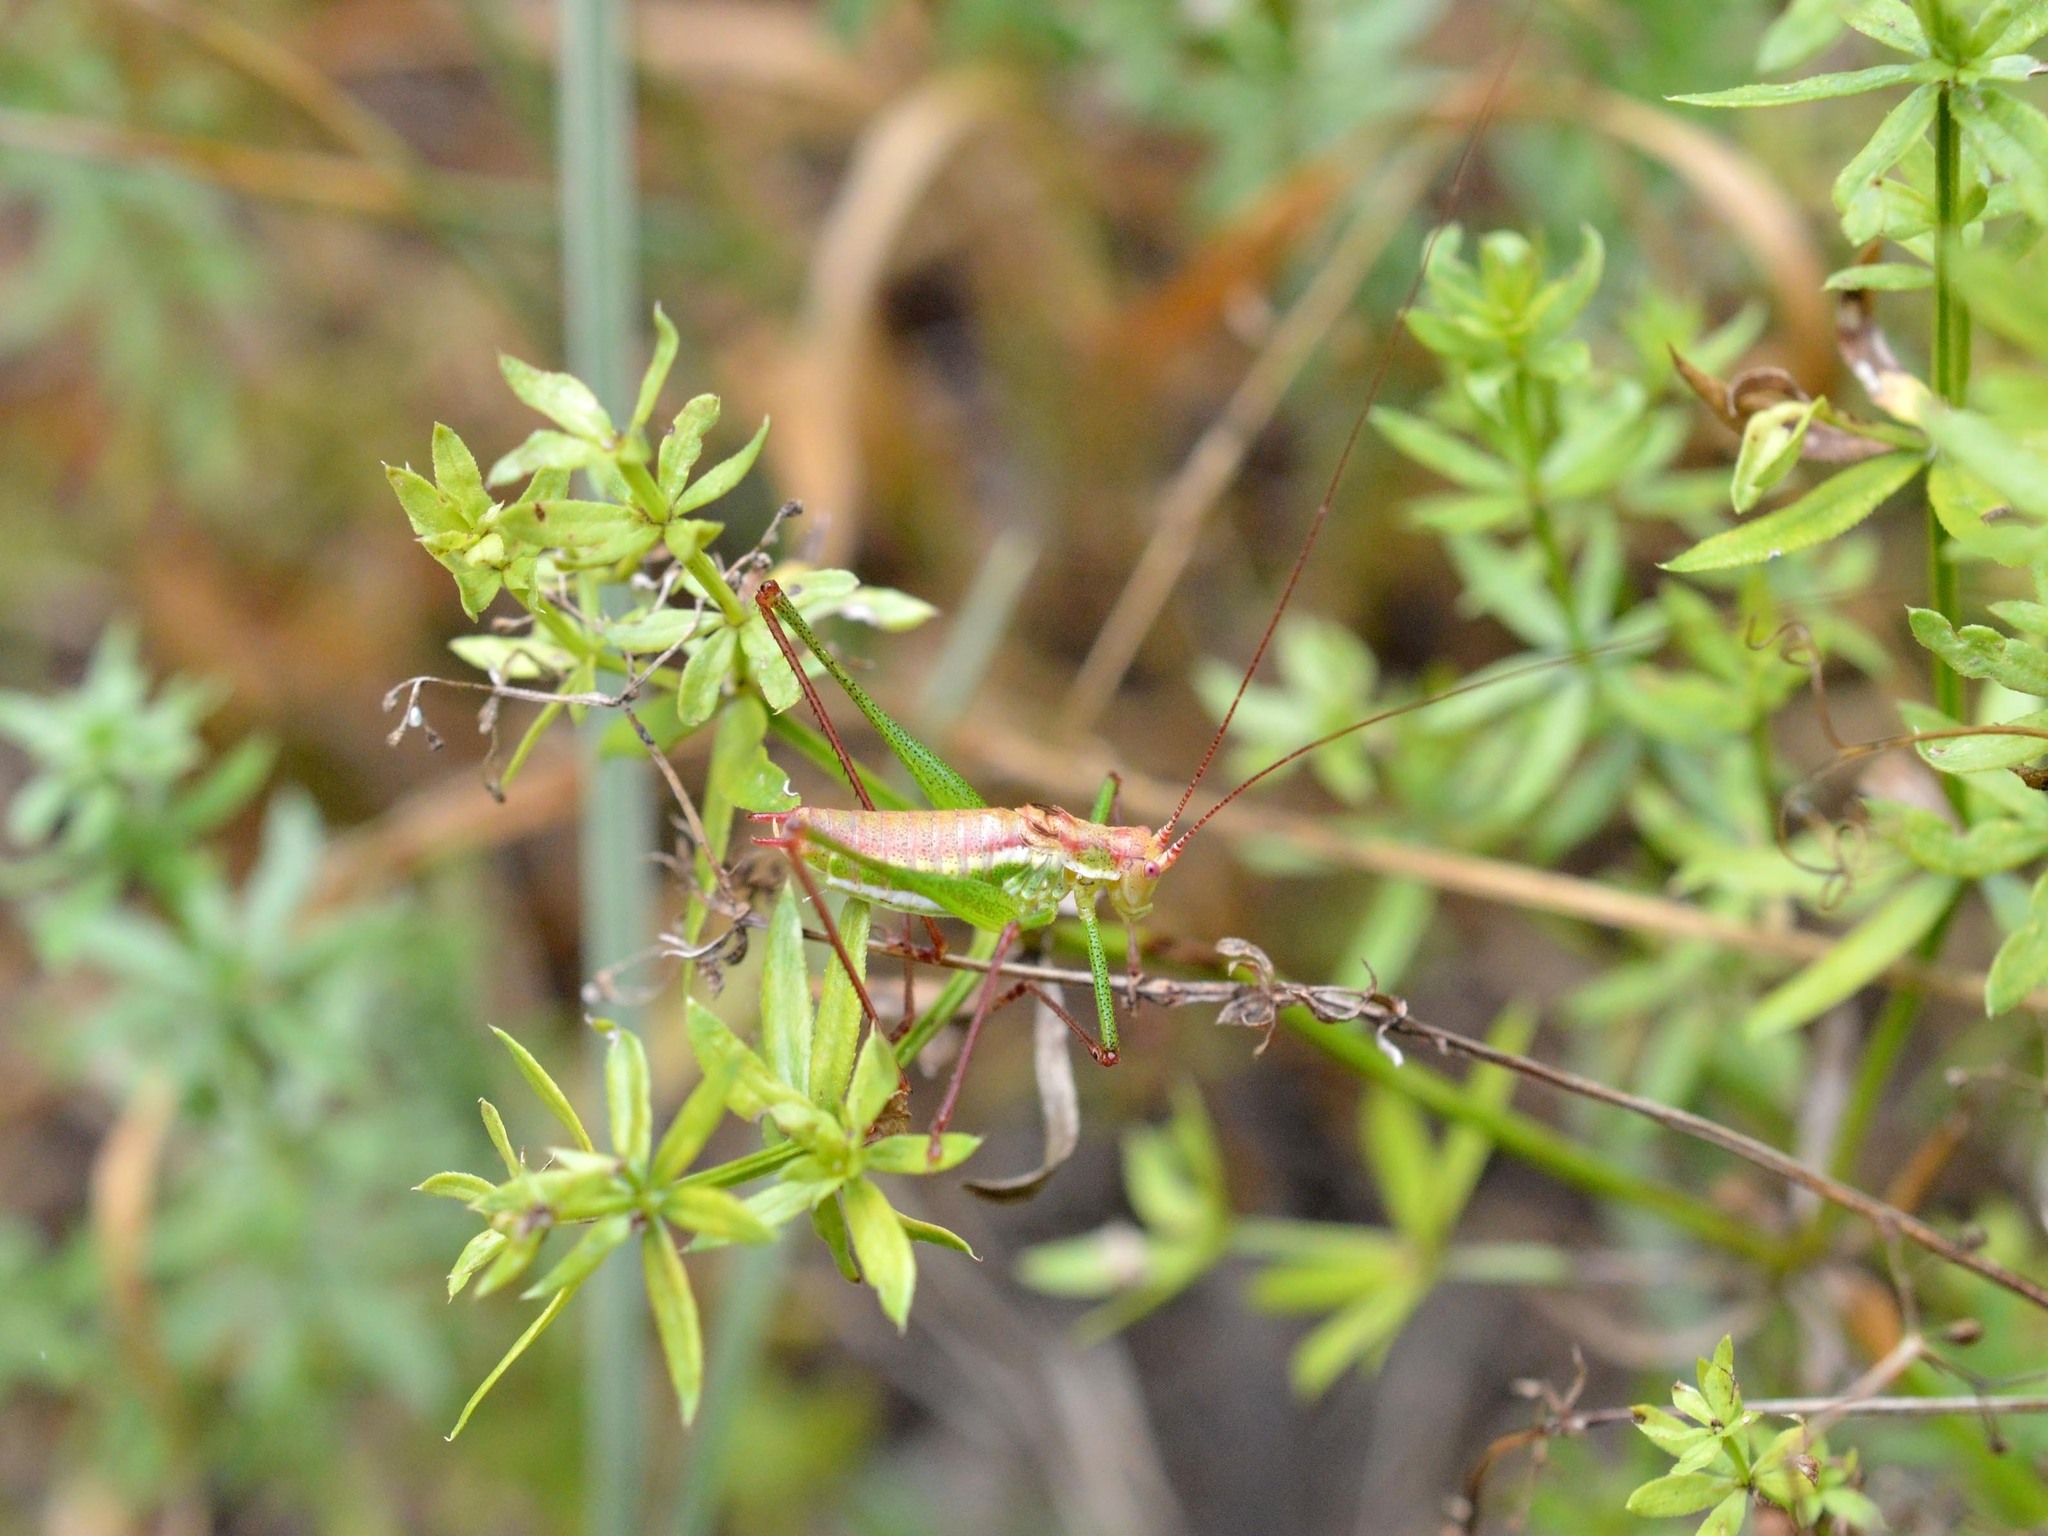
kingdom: Animalia
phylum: Arthropoda
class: Insecta
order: Orthoptera
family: Tettigoniidae
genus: Leptophyes
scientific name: Leptophyes albovittata
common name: Striped bush-cricket
